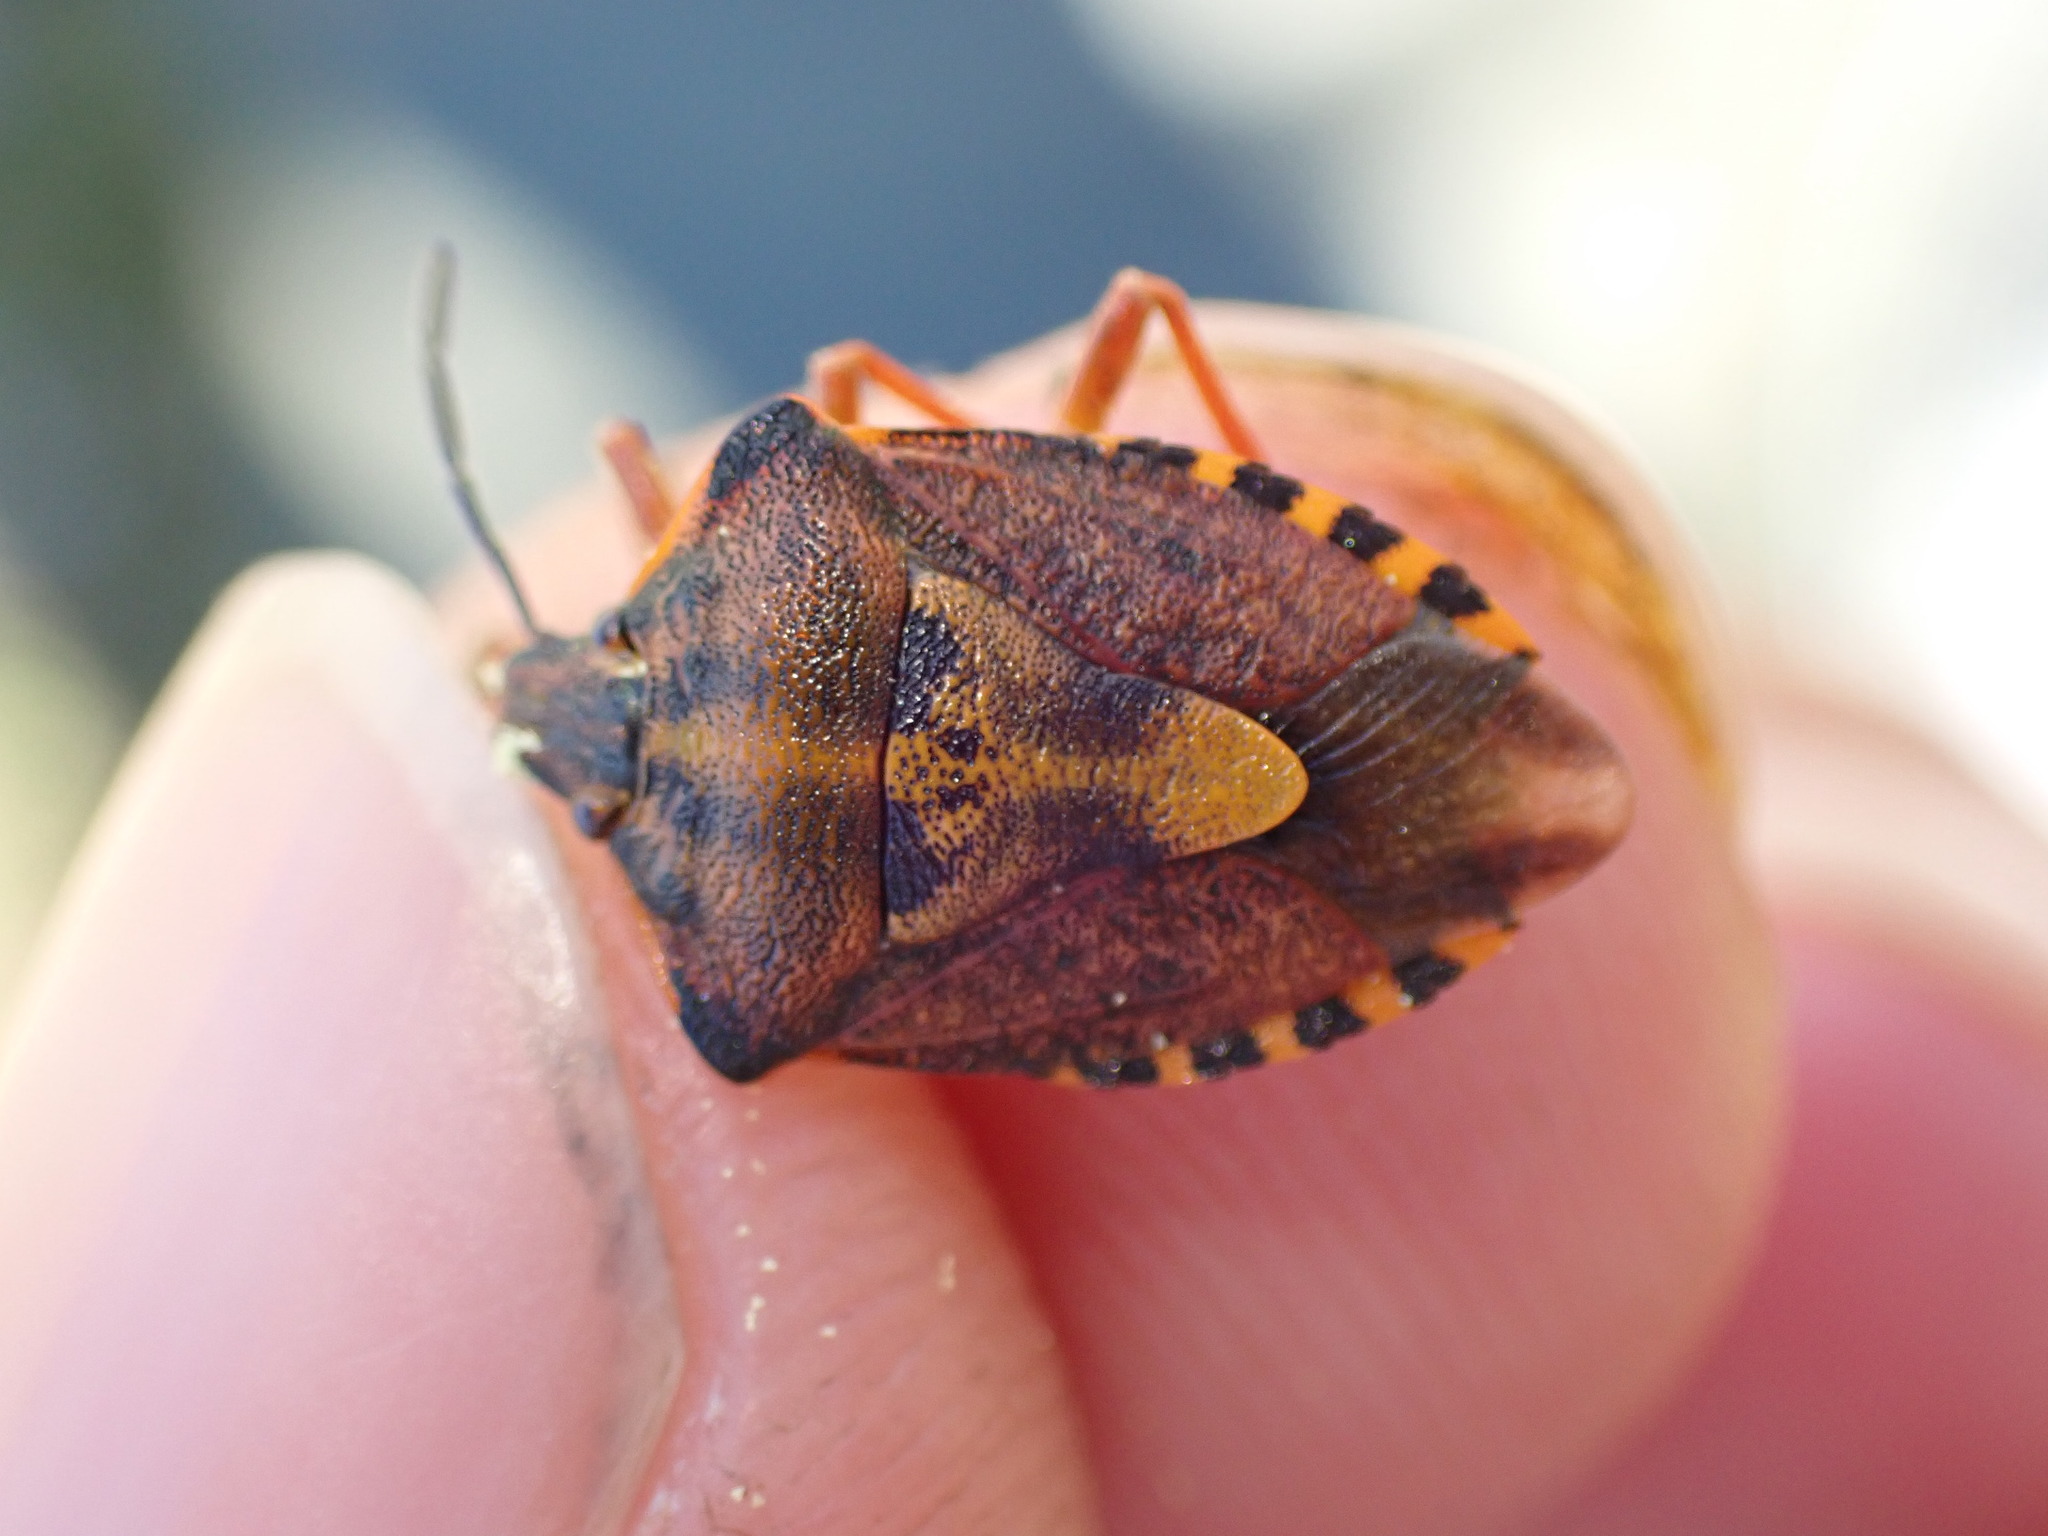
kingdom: Animalia
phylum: Arthropoda
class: Insecta
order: Hemiptera
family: Pentatomidae
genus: Carpocoris
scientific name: Carpocoris purpureipennis
